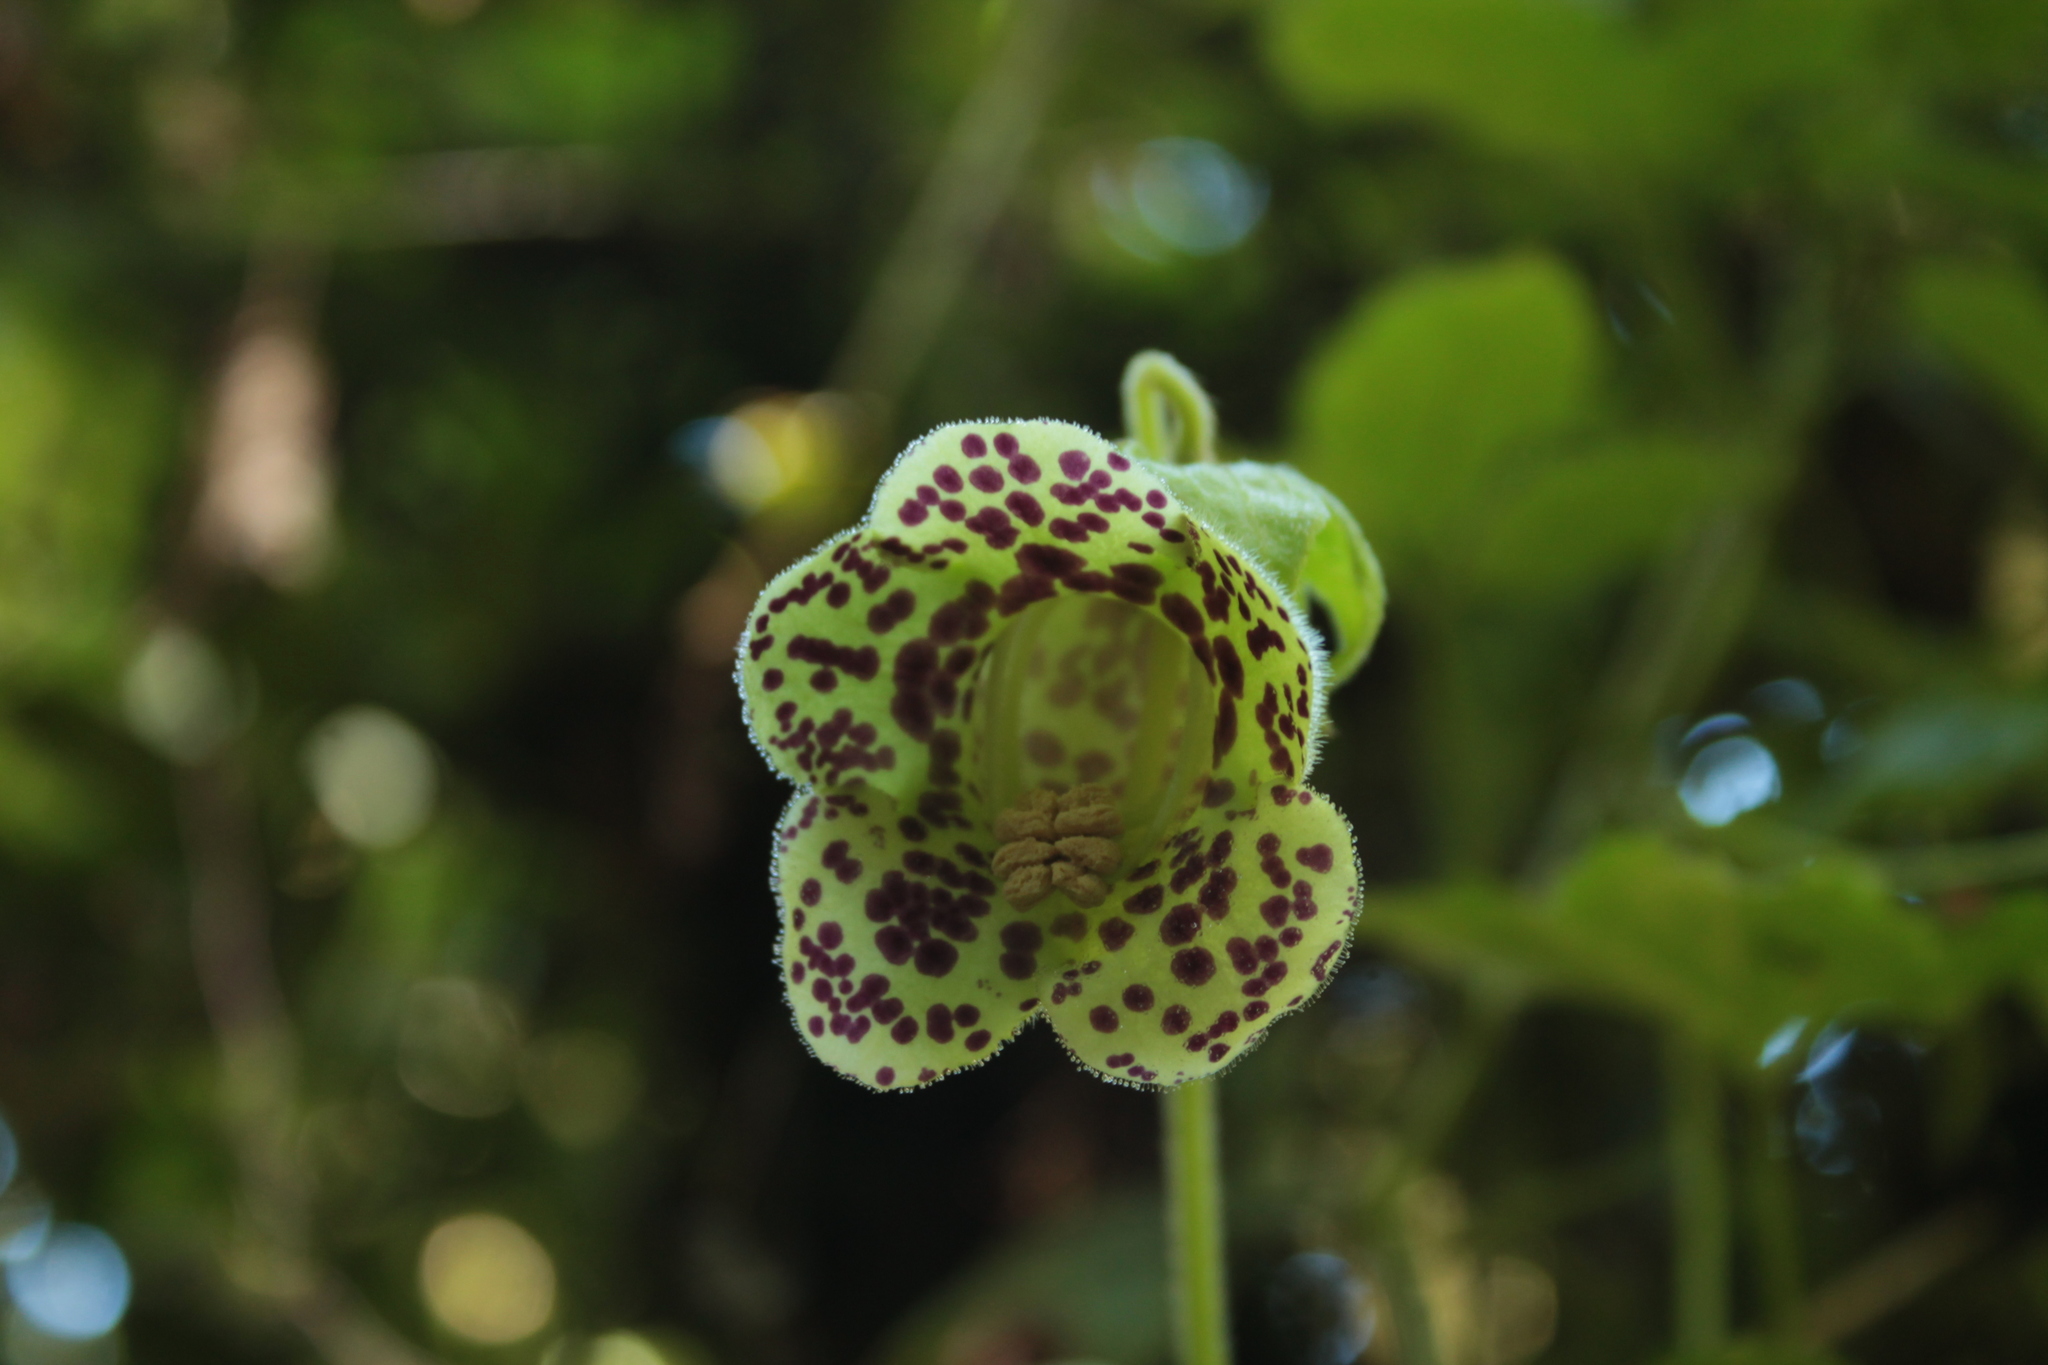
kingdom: Plantae
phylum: Tracheophyta
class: Magnoliopsida
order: Lamiales
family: Gesneriaceae
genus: Kohleria
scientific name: Kohleria tigridia
